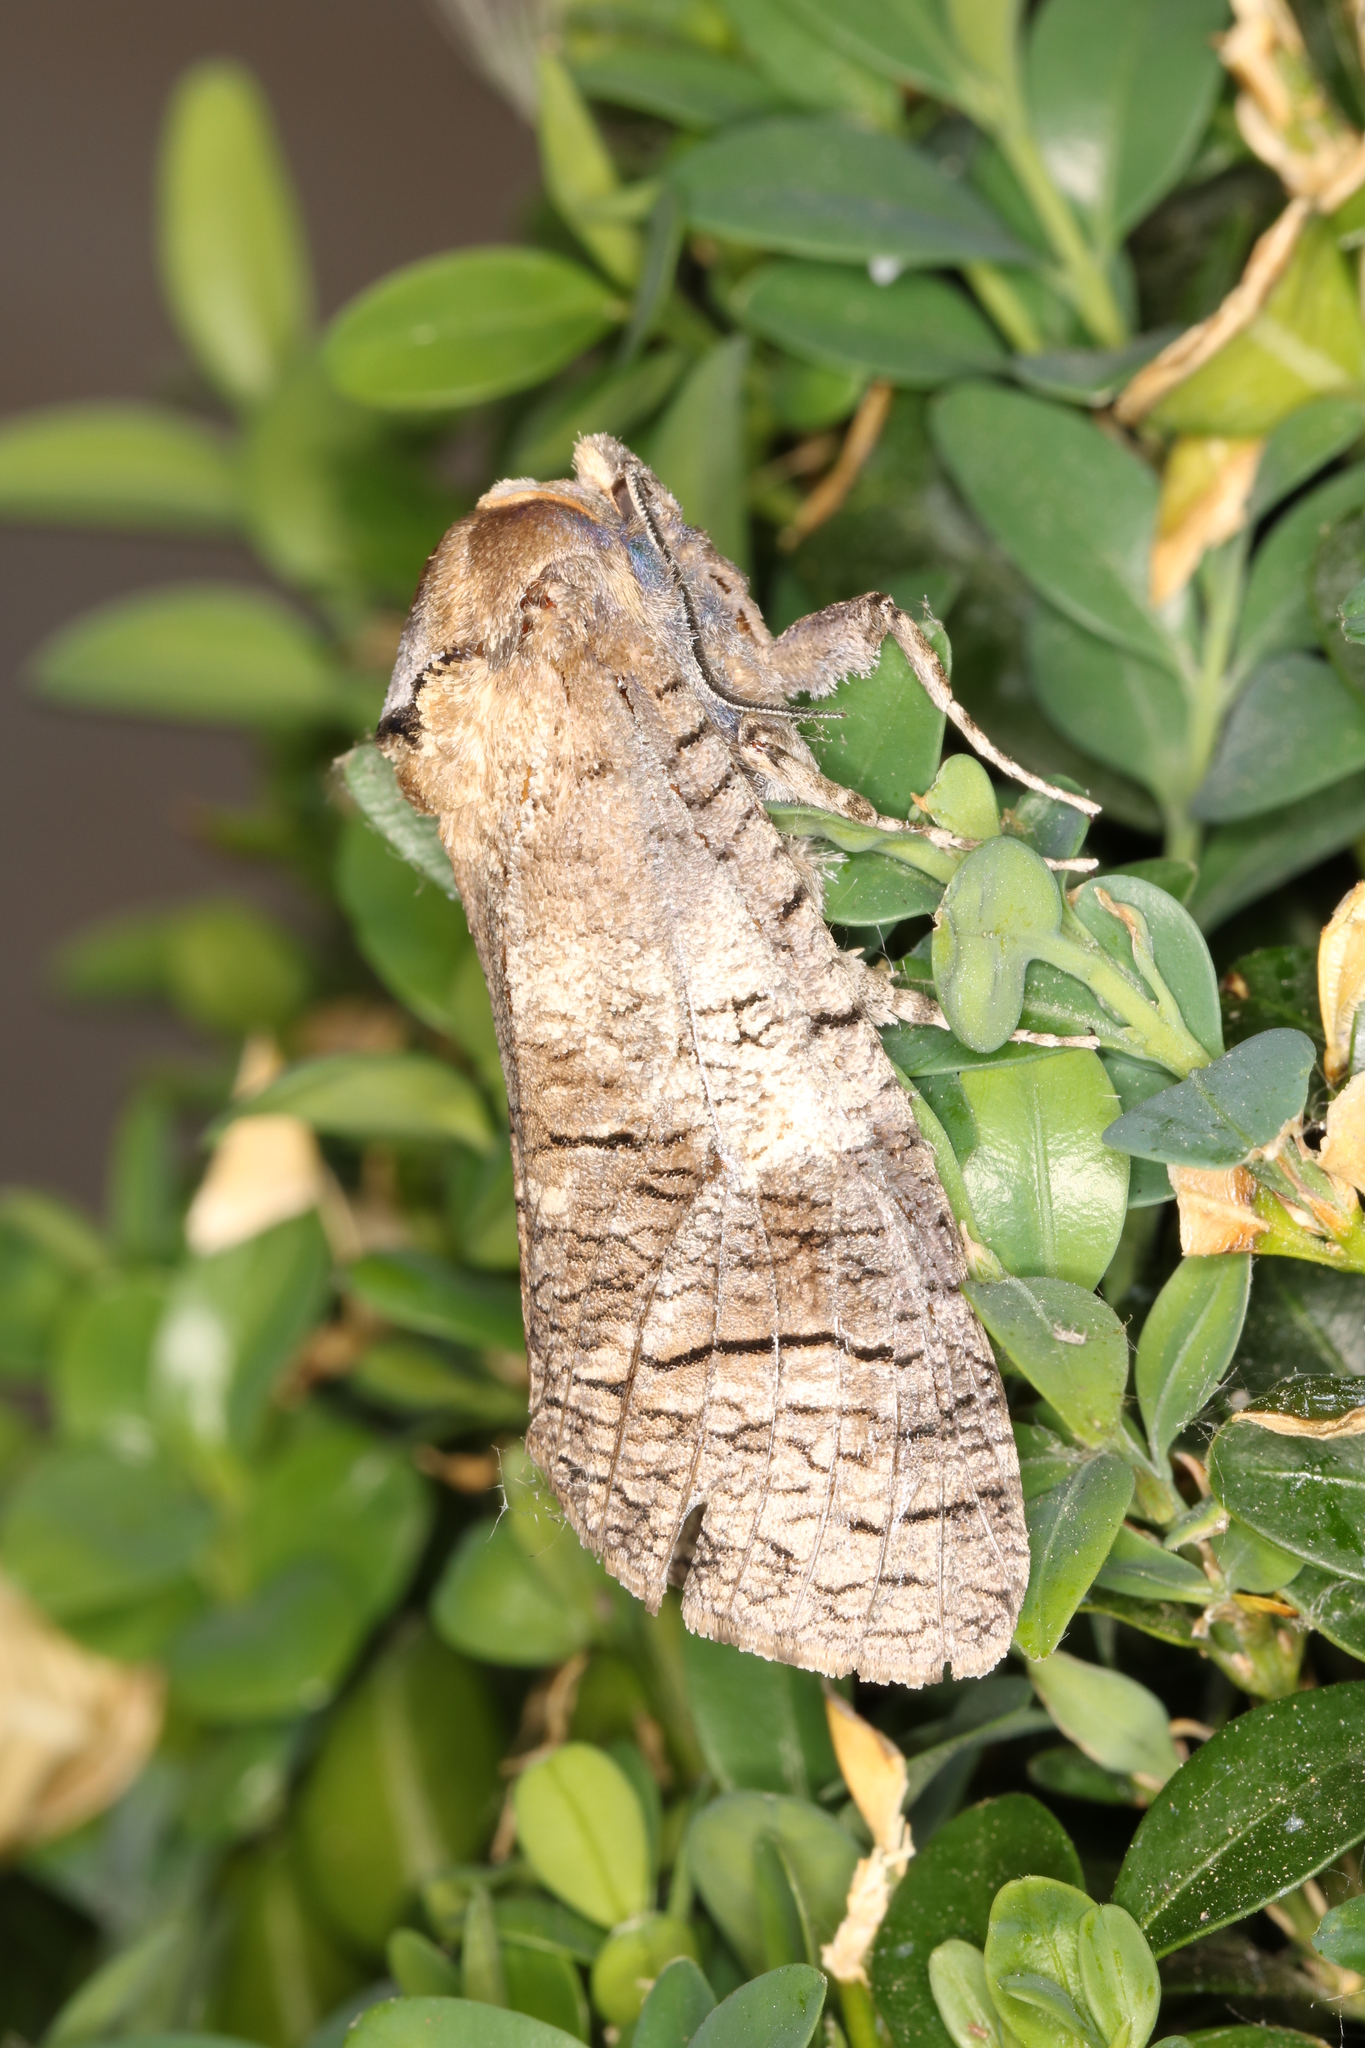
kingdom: Animalia
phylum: Arthropoda
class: Insecta
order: Lepidoptera
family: Cossidae
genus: Cossus
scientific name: Cossus cossus
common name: Goat moth
